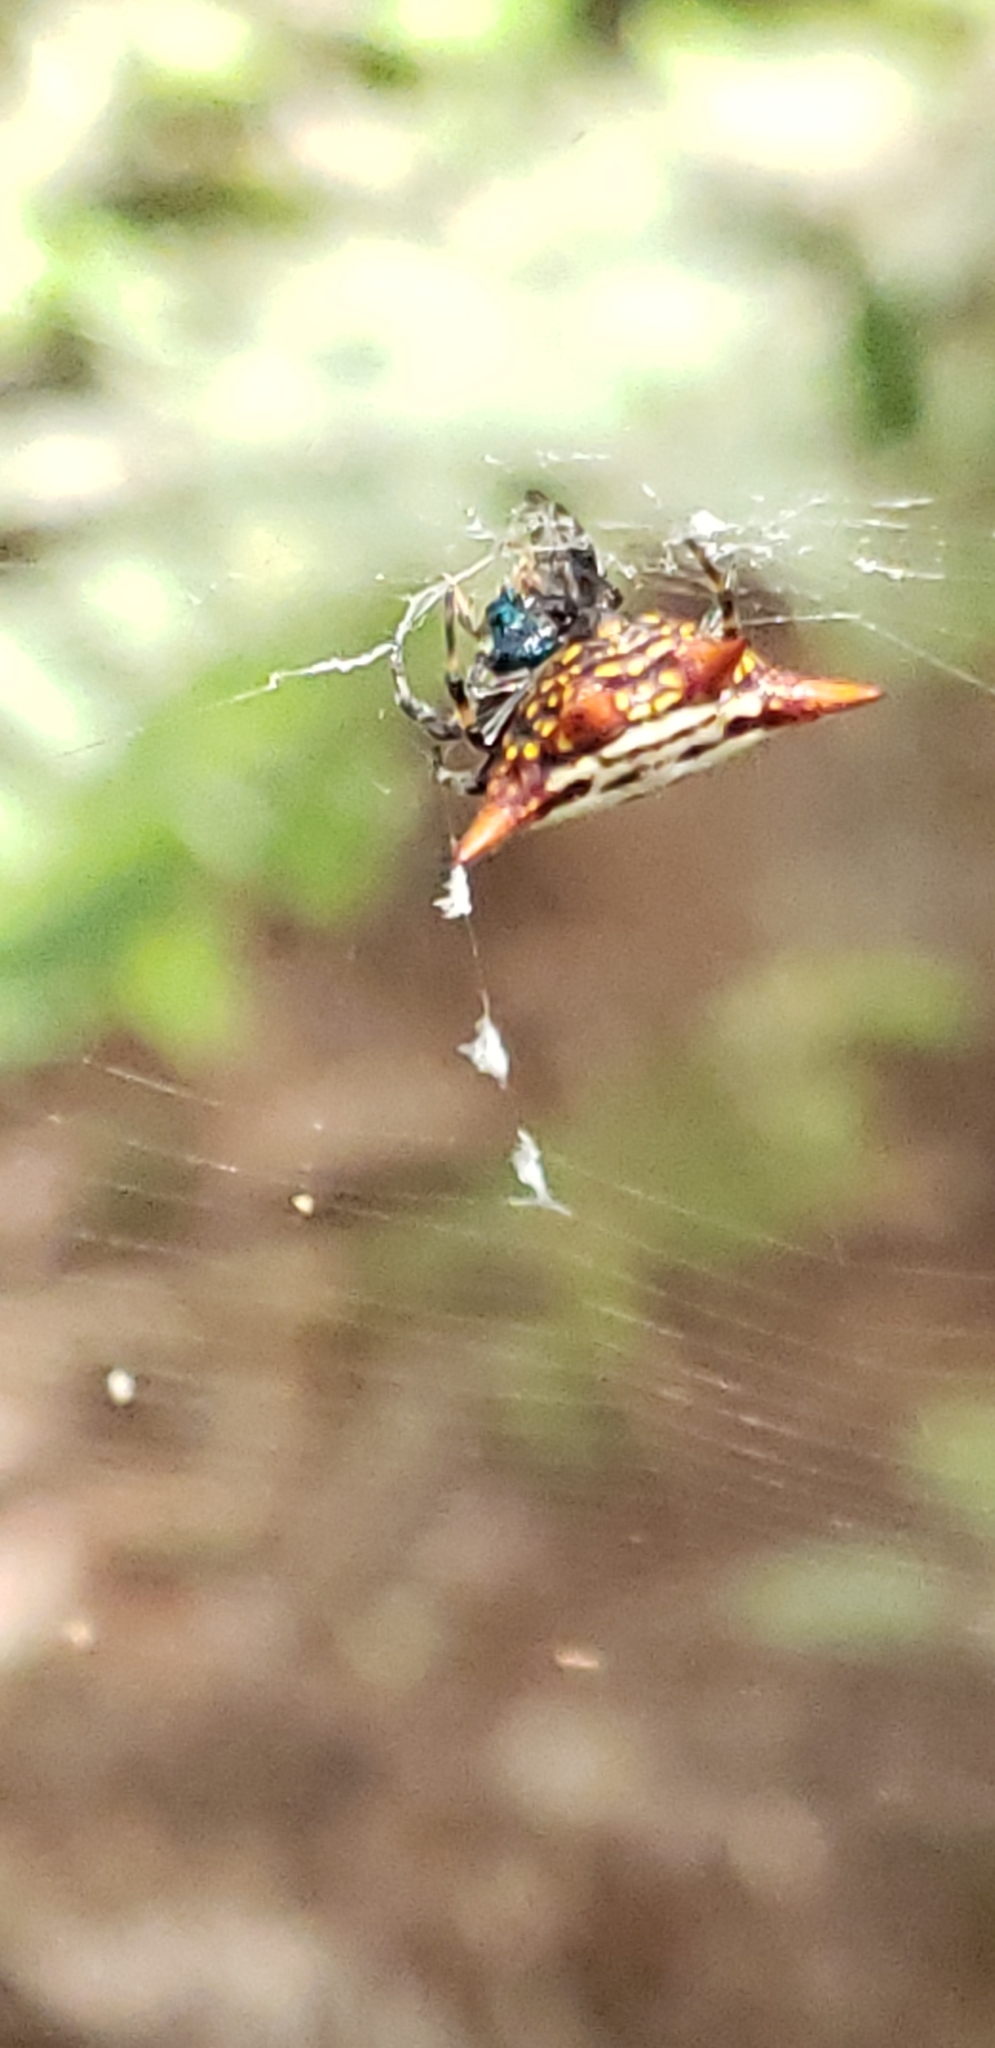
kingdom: Animalia
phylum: Arthropoda
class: Arachnida
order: Araneae
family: Araneidae
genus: Gasteracantha
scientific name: Gasteracantha cancriformis
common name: Orb weavers
